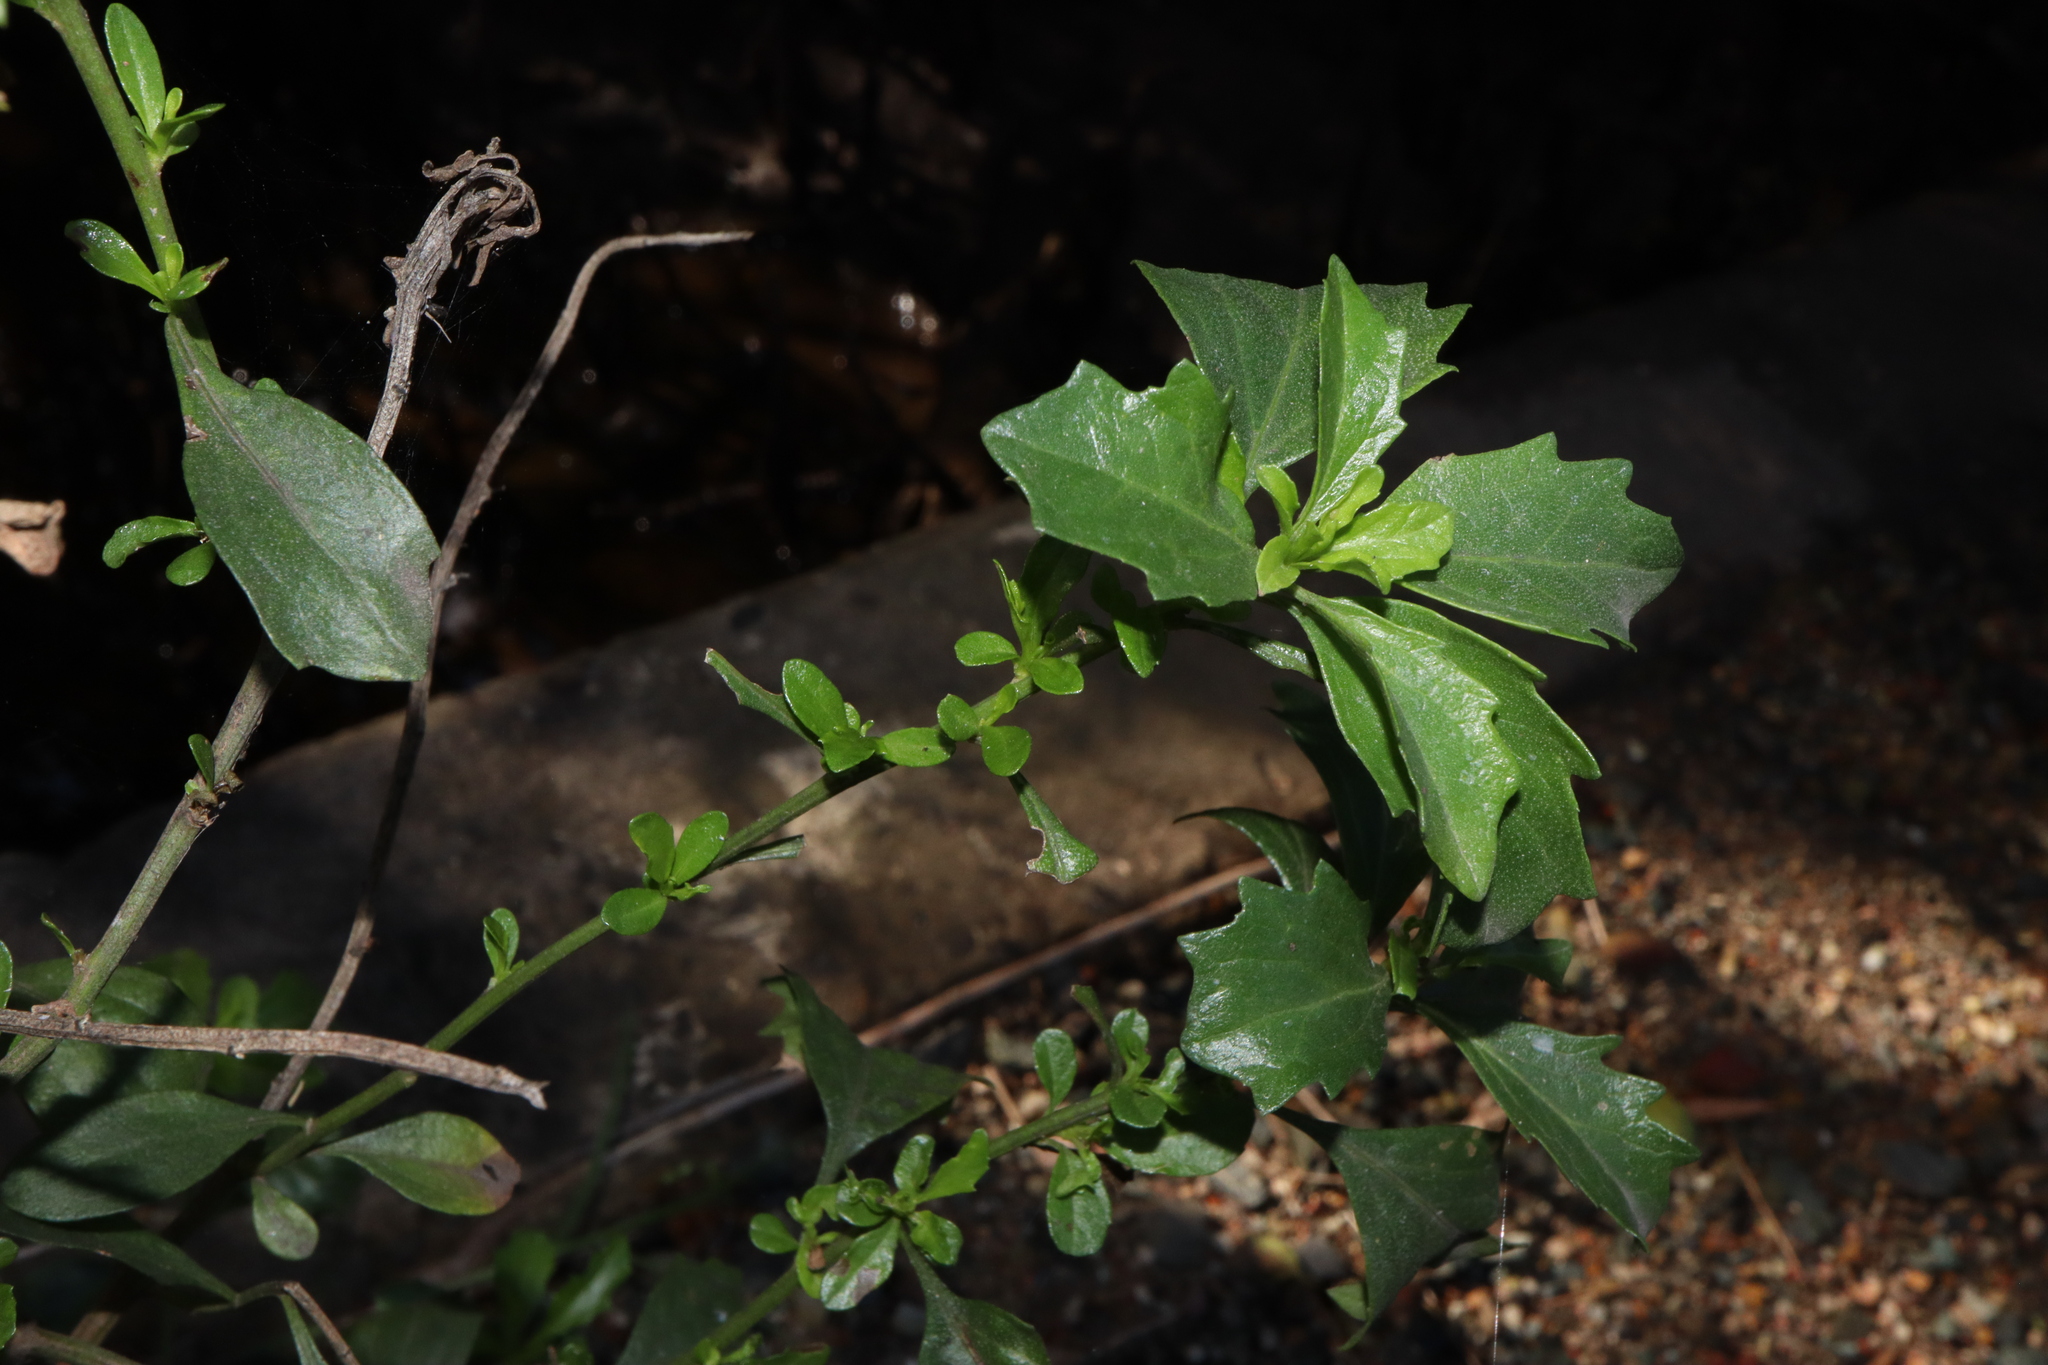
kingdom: Plantae
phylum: Tracheophyta
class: Magnoliopsida
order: Asterales
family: Asteraceae
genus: Baccharis
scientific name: Baccharis halimifolia
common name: Eastern baccharis
